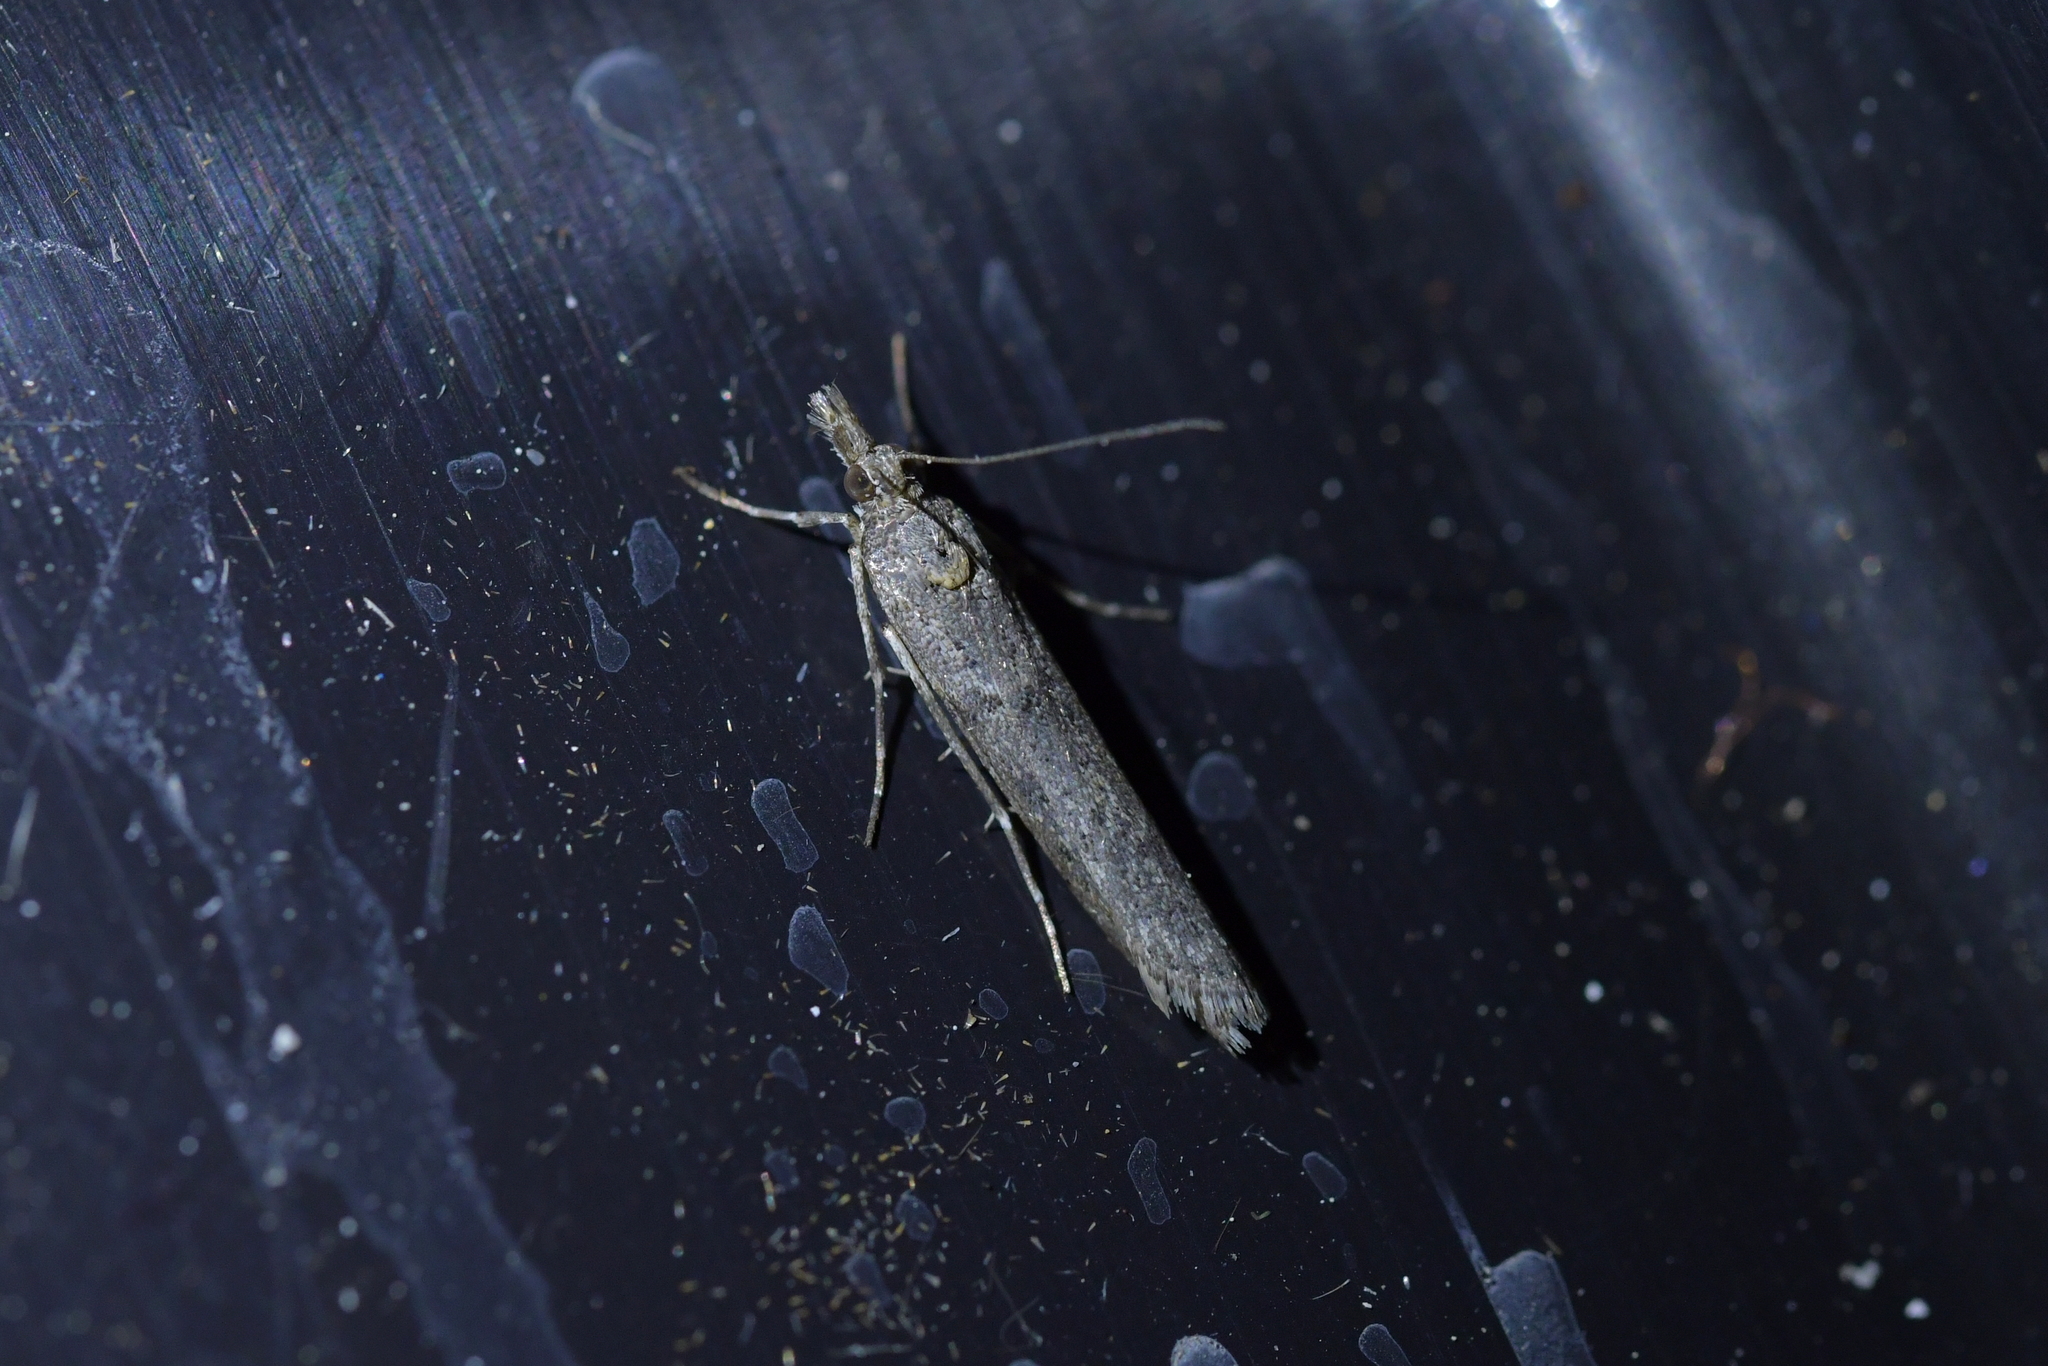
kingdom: Animalia
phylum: Arthropoda
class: Insecta
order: Lepidoptera
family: Crambidae
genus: Eudonia
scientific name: Eudonia leptalea
